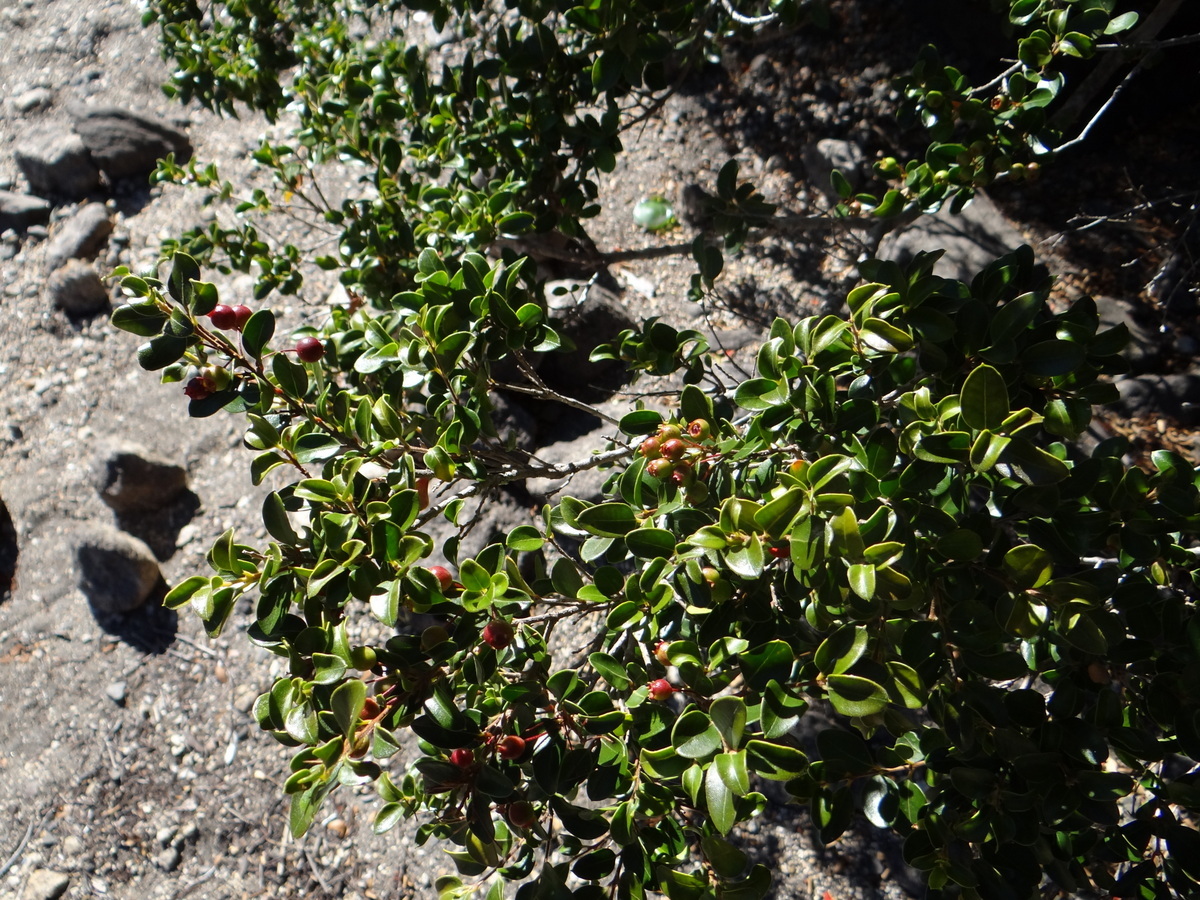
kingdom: Plantae
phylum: Tracheophyta
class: Magnoliopsida
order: Myrtales
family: Myrtaceae
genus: Ugni
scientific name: Ugni molinae
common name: Chilean-guava
